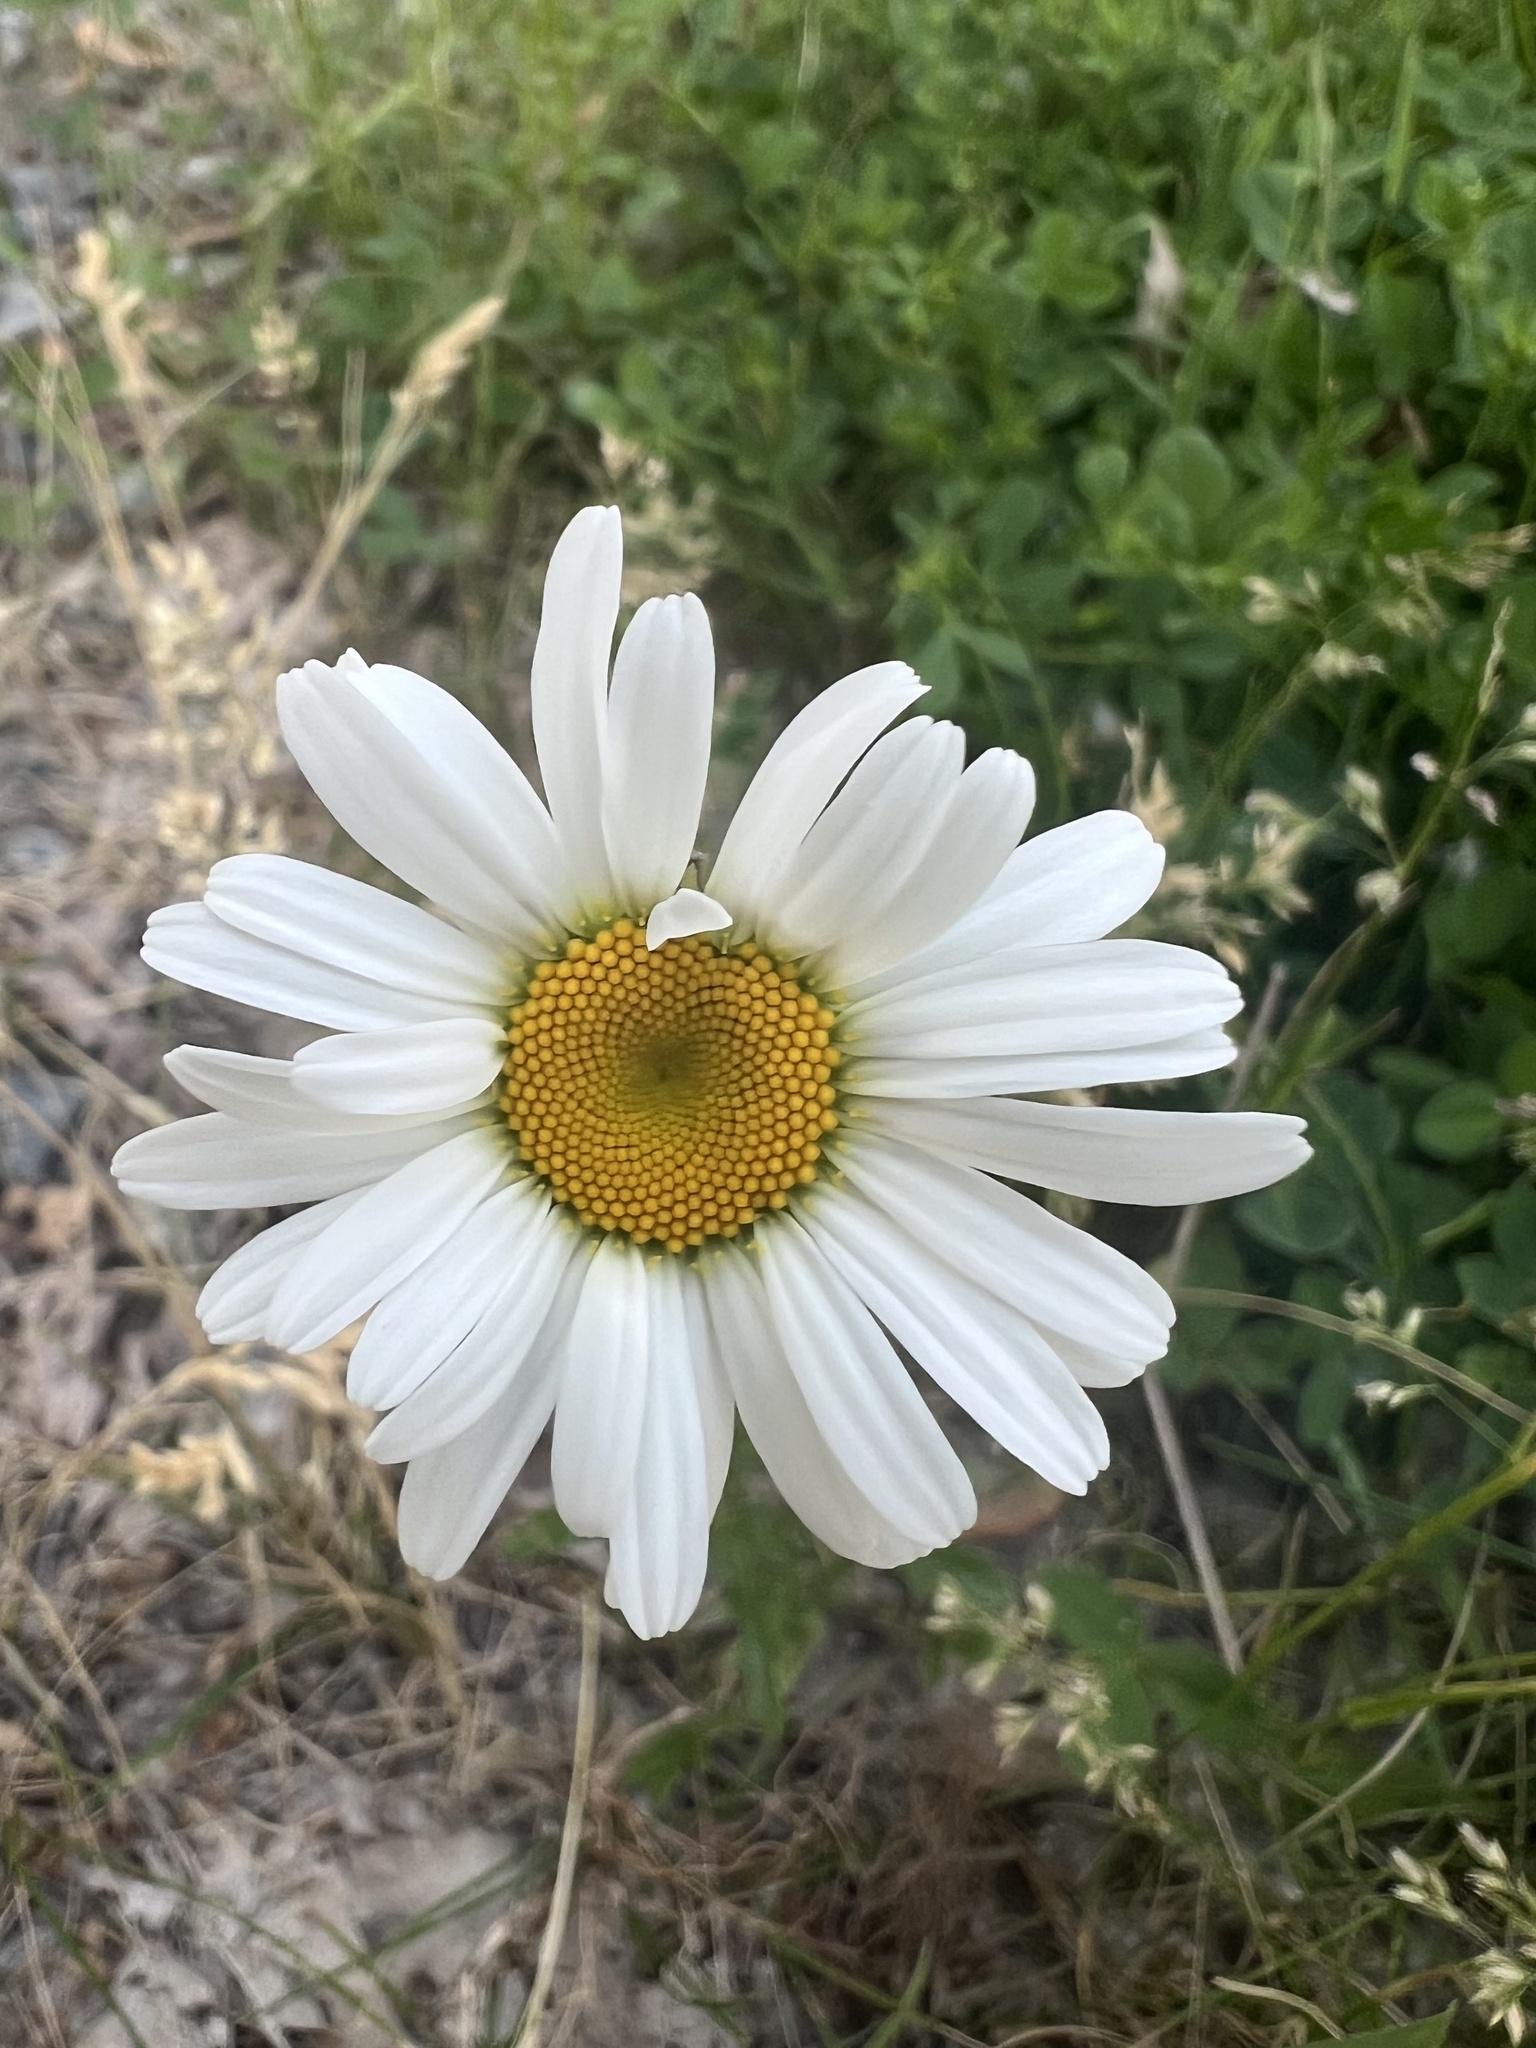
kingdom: Plantae
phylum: Tracheophyta
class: Magnoliopsida
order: Asterales
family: Asteraceae
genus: Leucanthemum
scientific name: Leucanthemum vulgare
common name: Oxeye daisy
